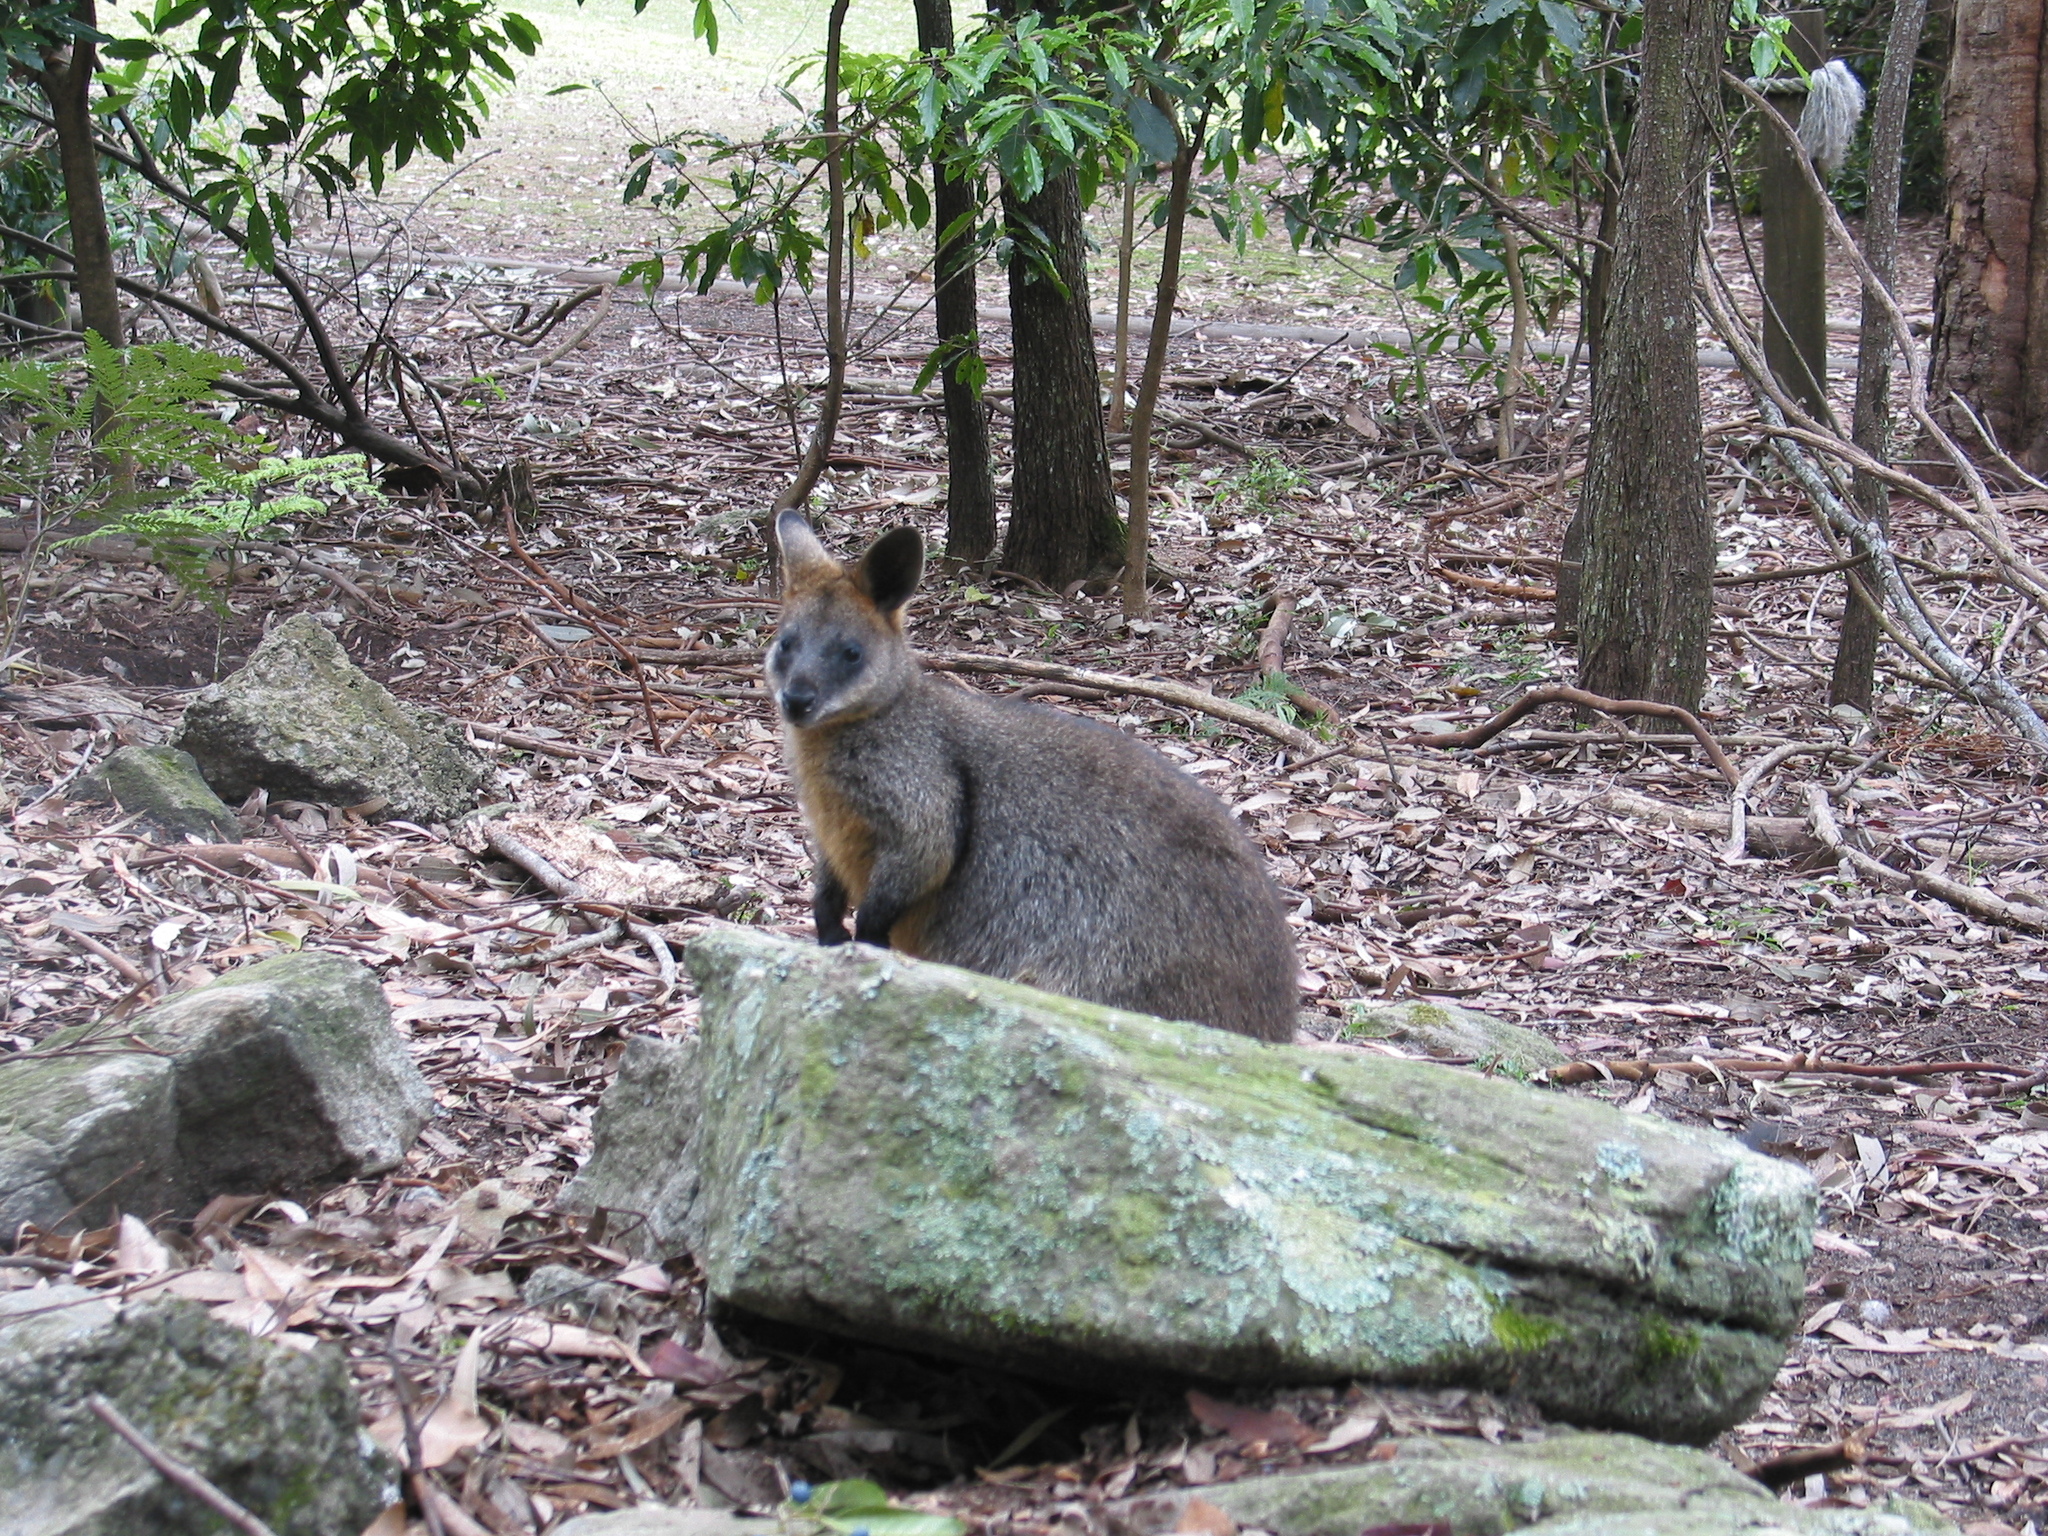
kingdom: Animalia
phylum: Chordata
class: Mammalia
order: Diprotodontia
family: Macropodidae
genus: Wallabia
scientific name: Wallabia bicolor
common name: Swamp wallaby
